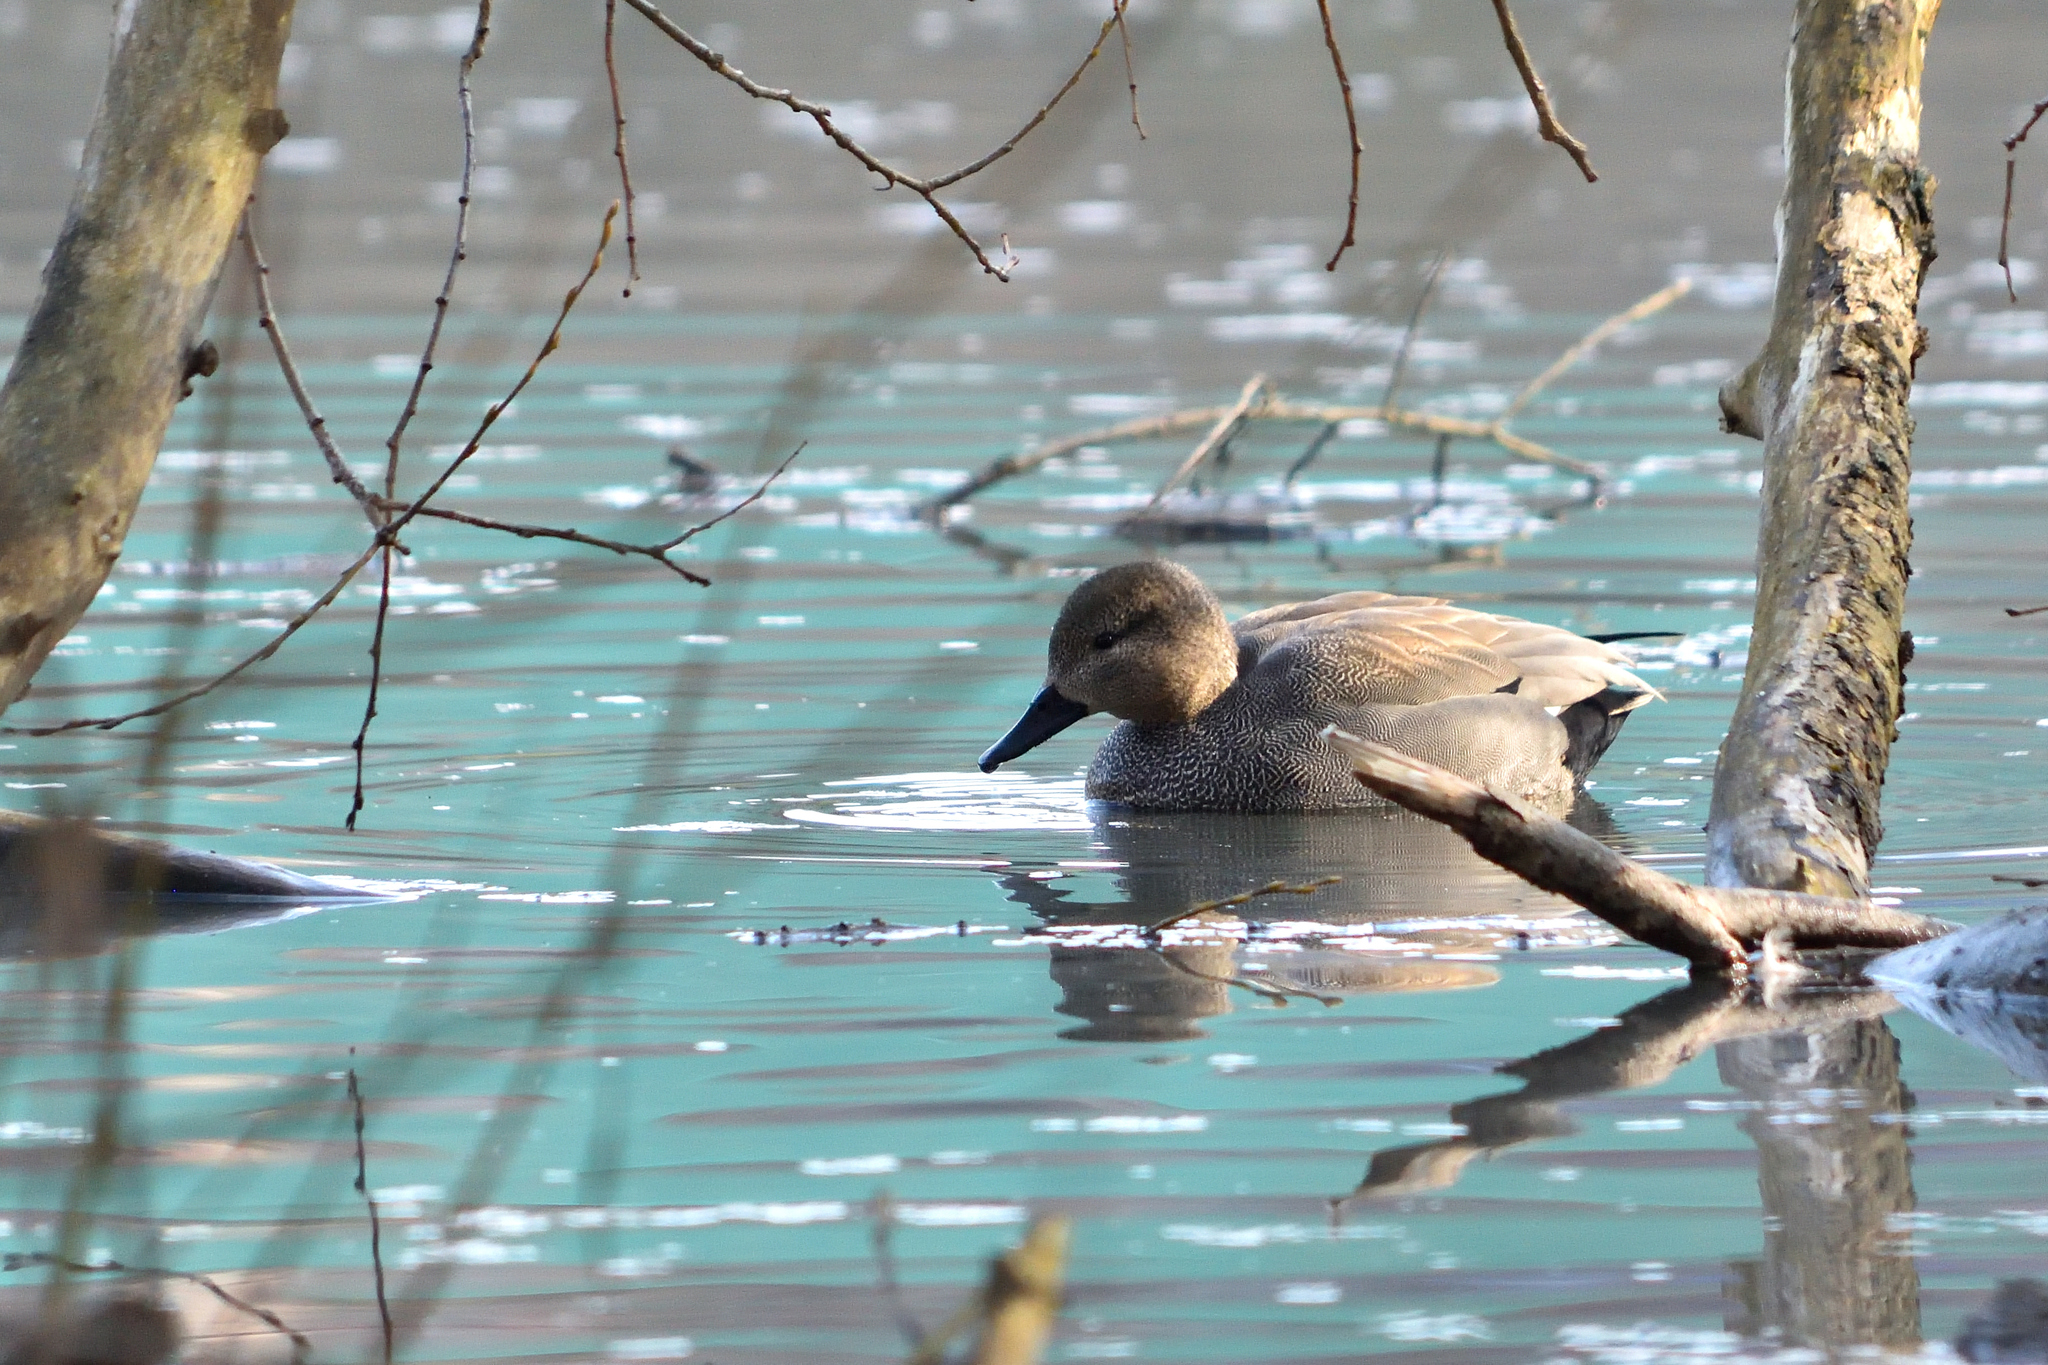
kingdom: Animalia
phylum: Chordata
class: Aves
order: Anseriformes
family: Anatidae
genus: Mareca
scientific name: Mareca strepera
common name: Gadwall
